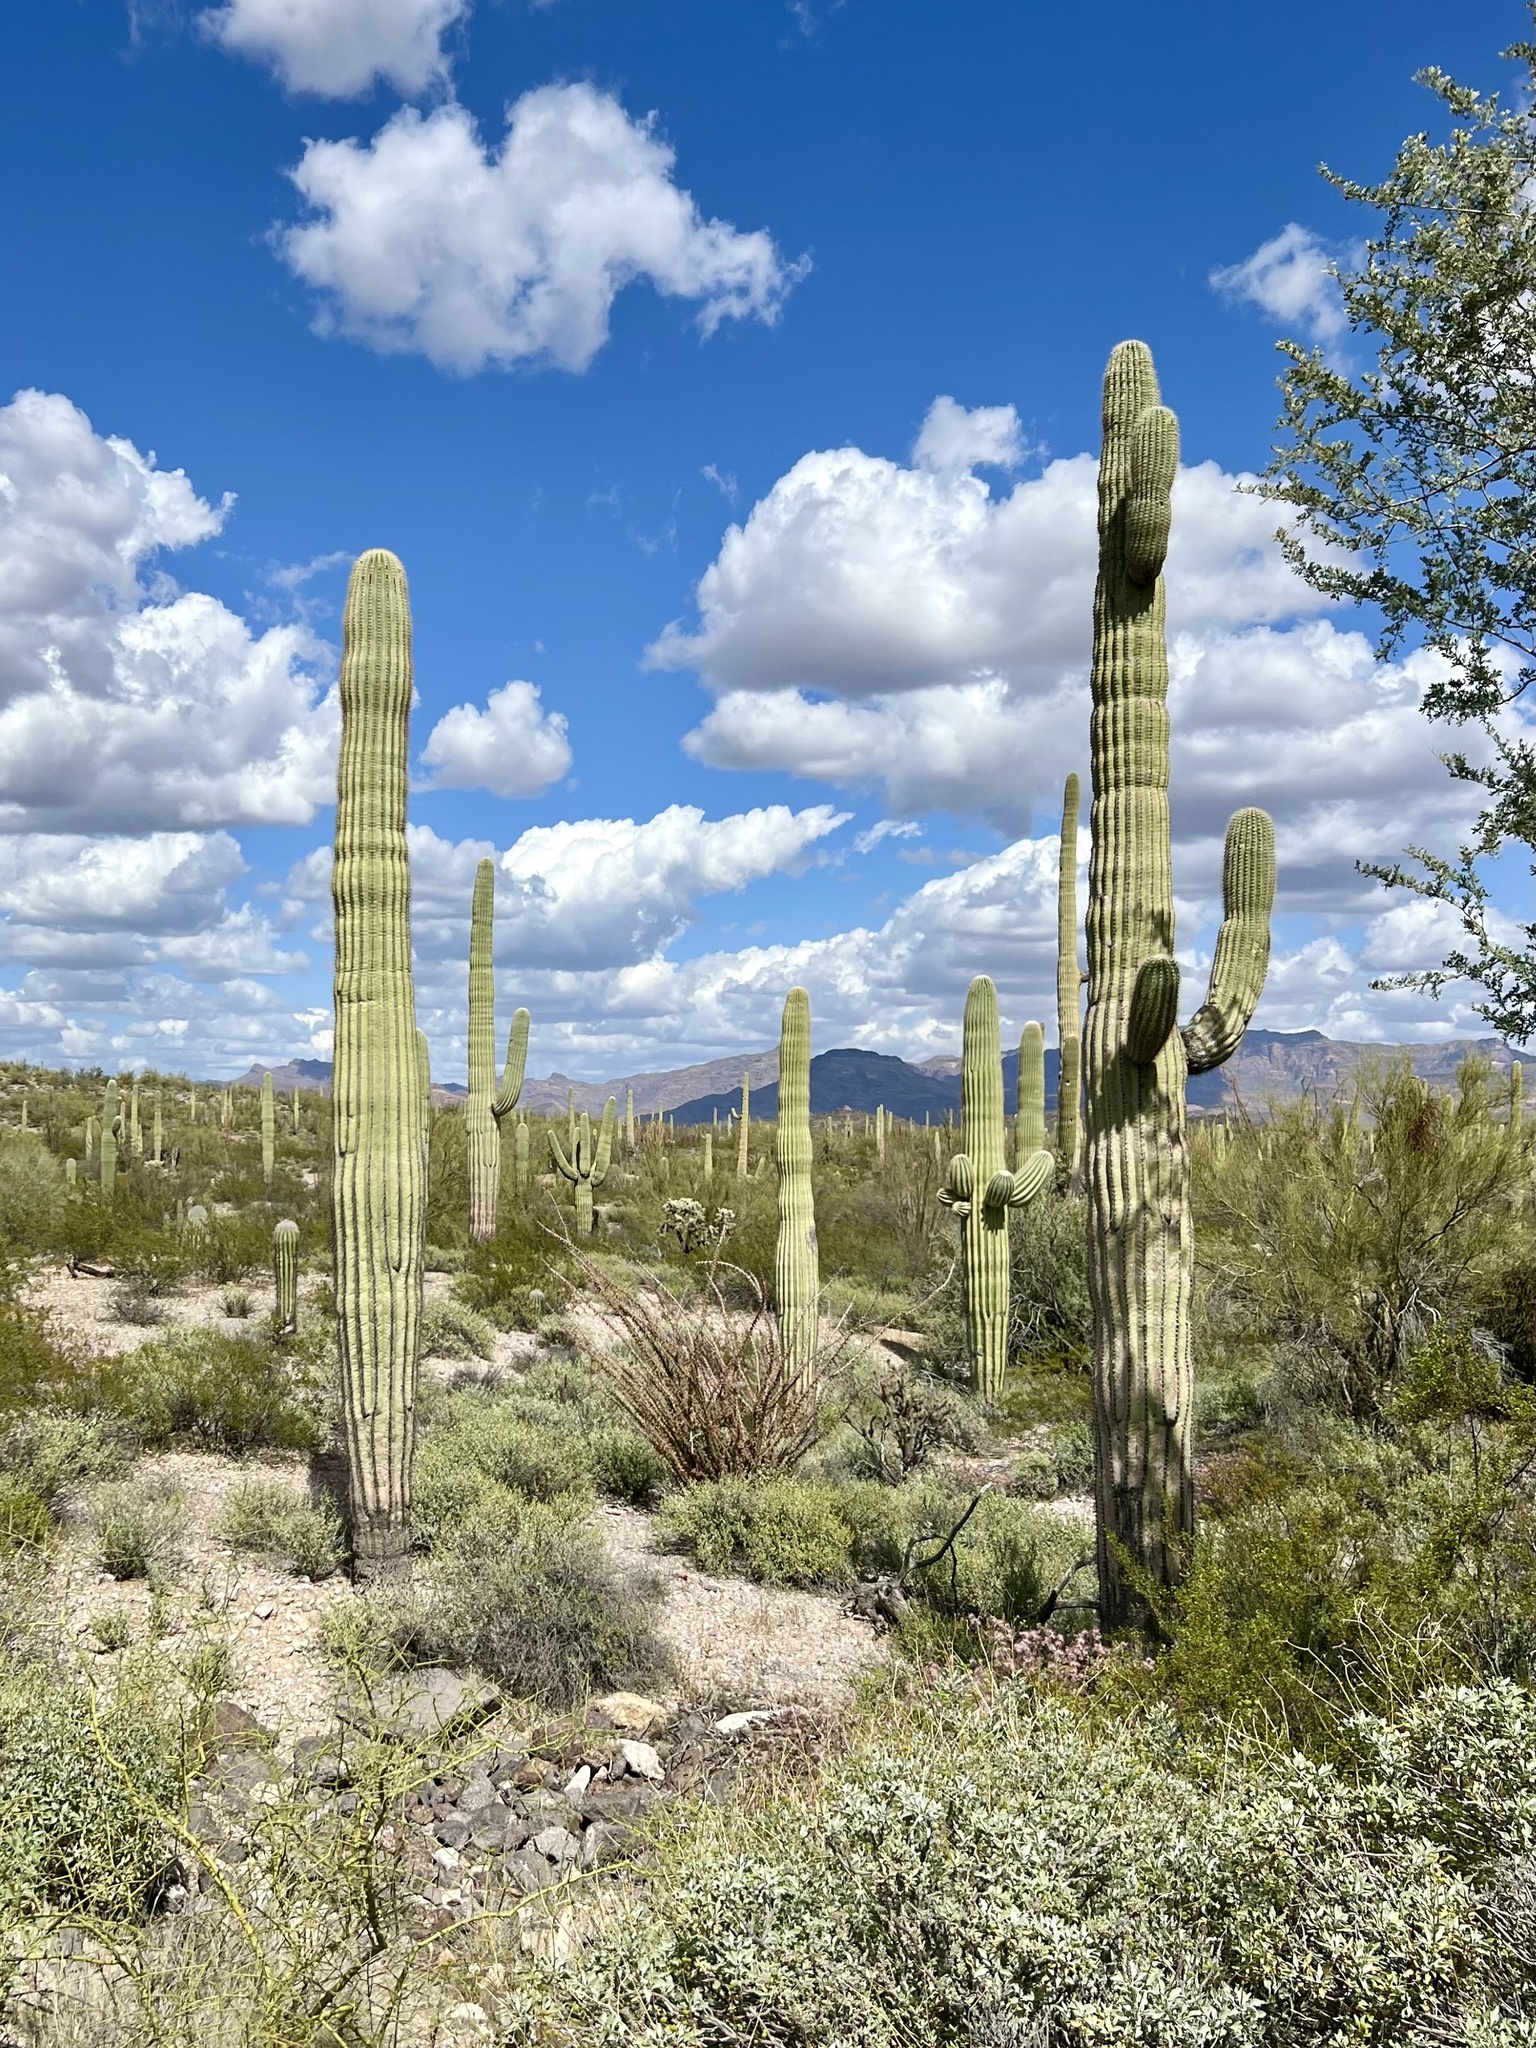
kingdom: Plantae
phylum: Tracheophyta
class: Magnoliopsida
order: Caryophyllales
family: Cactaceae
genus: Carnegiea
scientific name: Carnegiea gigantea
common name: Saguaro
